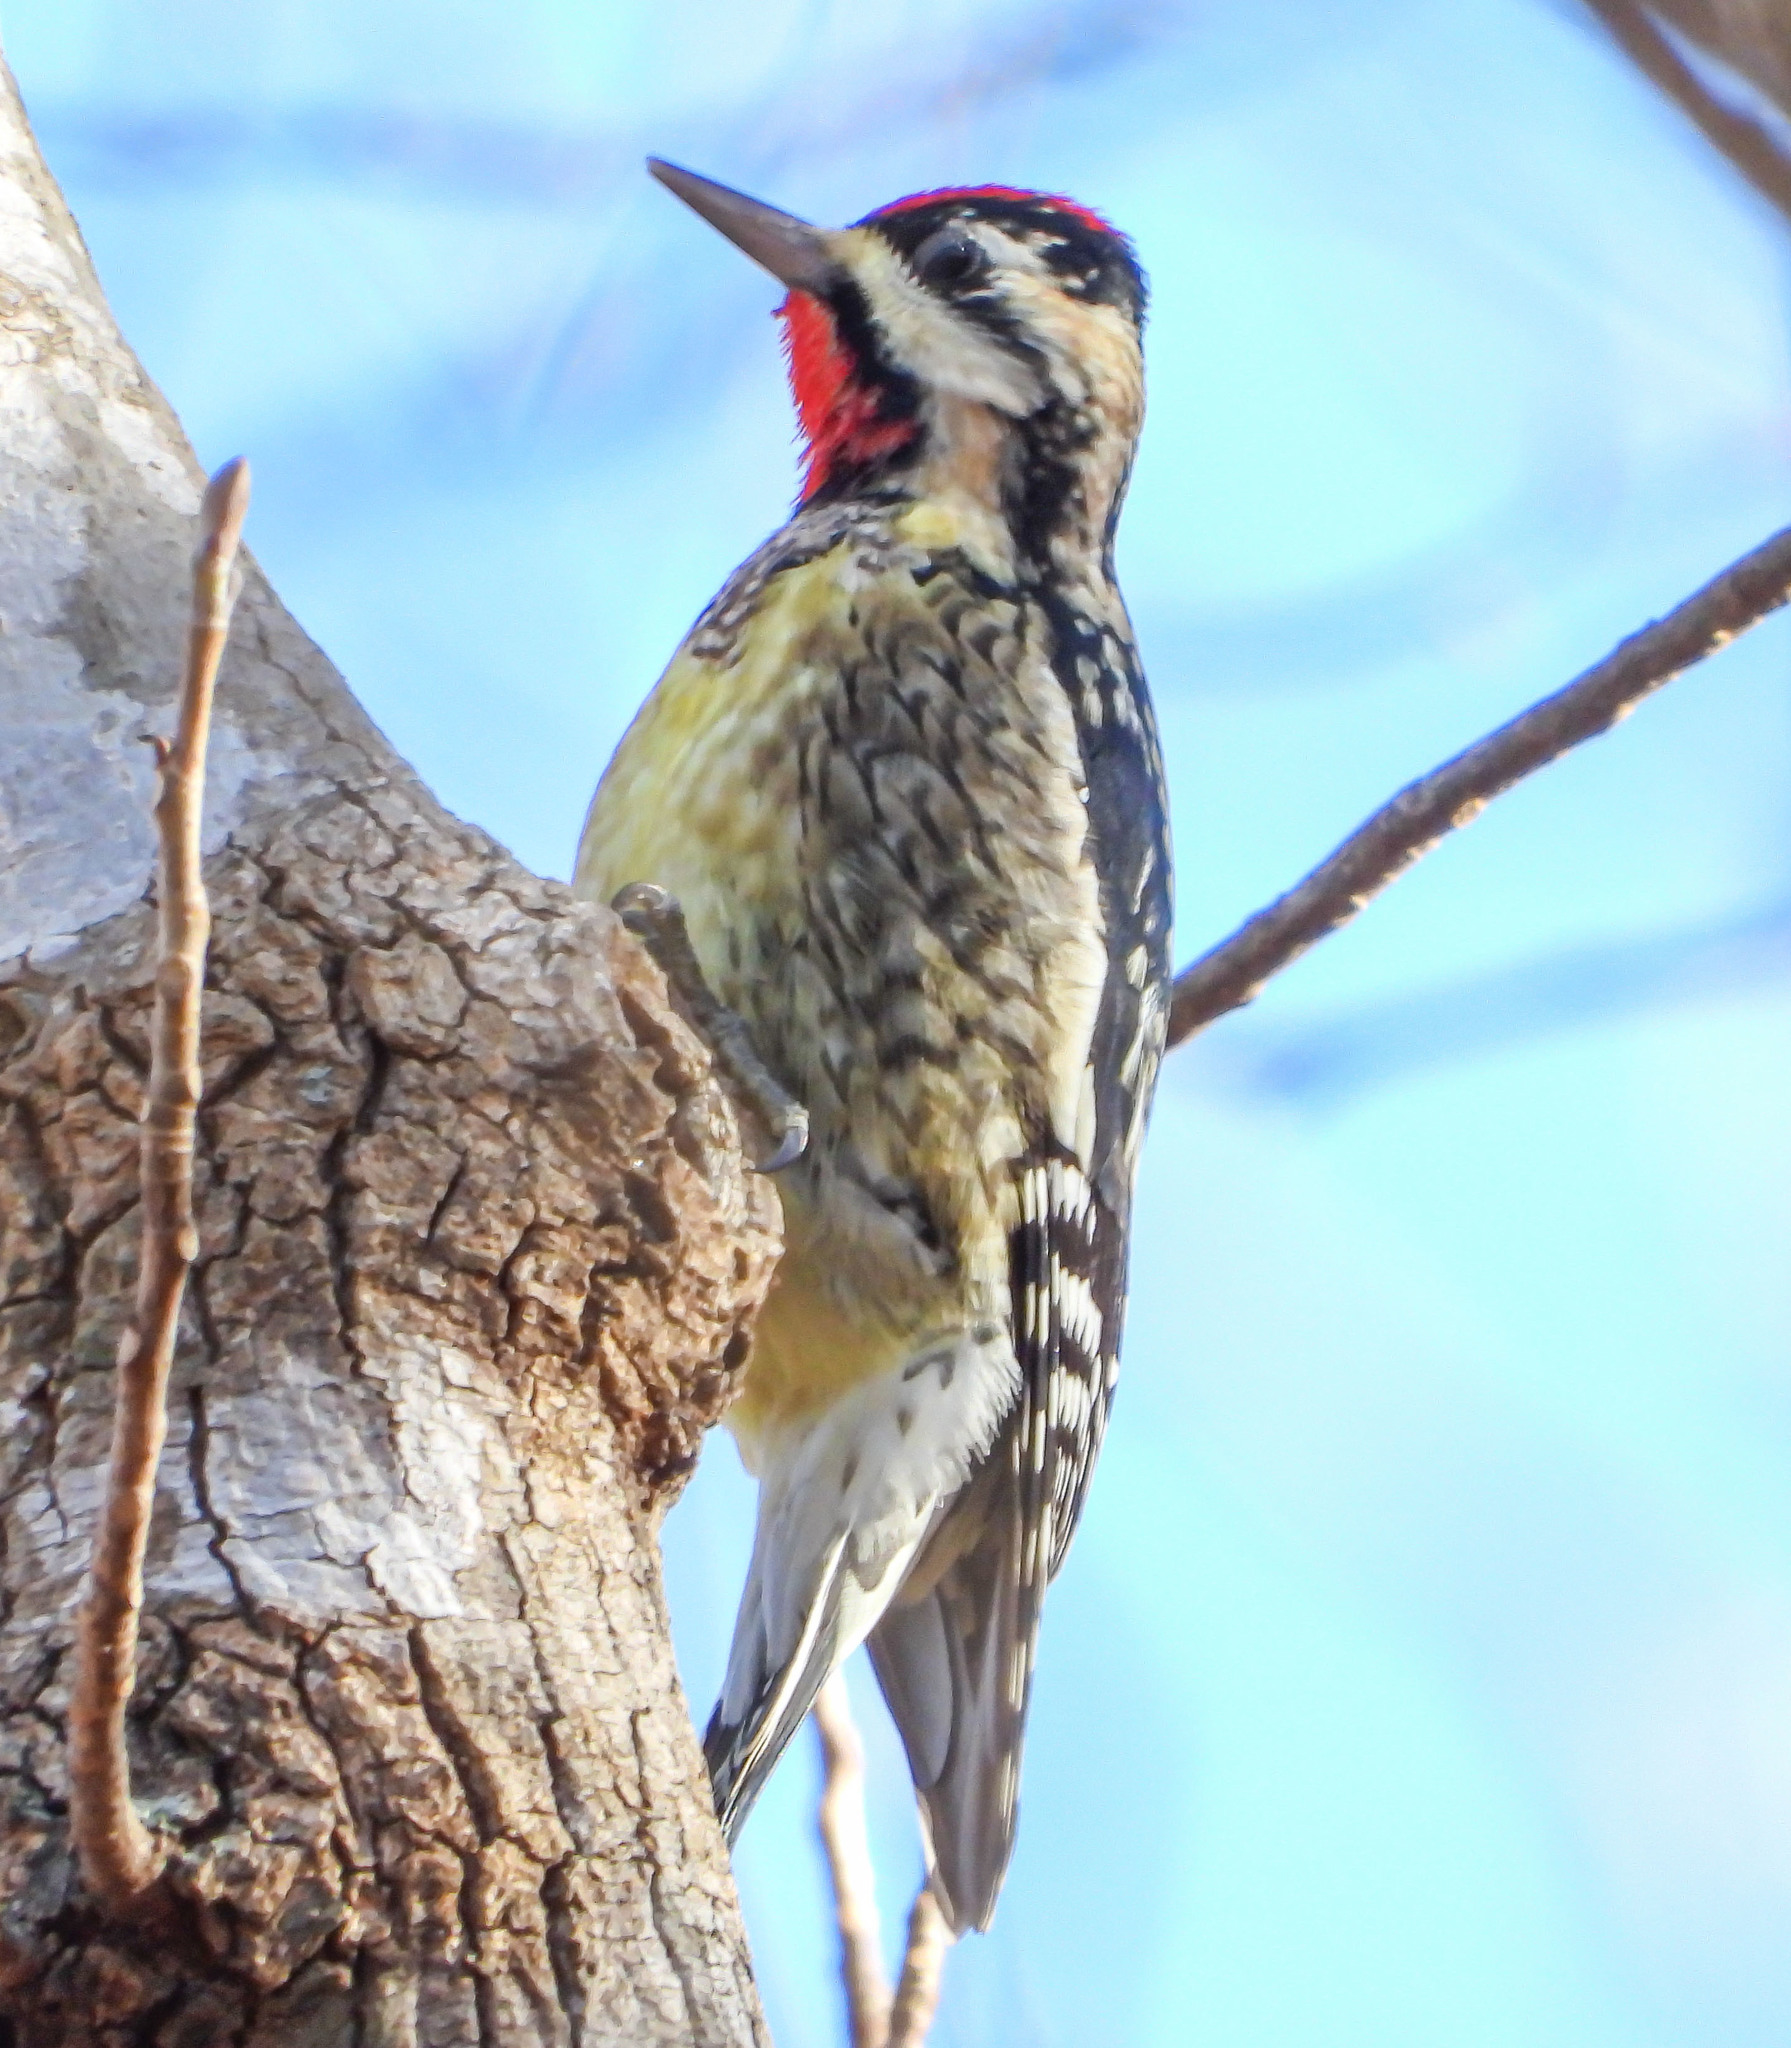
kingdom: Animalia
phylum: Chordata
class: Aves
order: Piciformes
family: Picidae
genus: Sphyrapicus
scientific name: Sphyrapicus varius
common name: Yellow-bellied sapsucker
